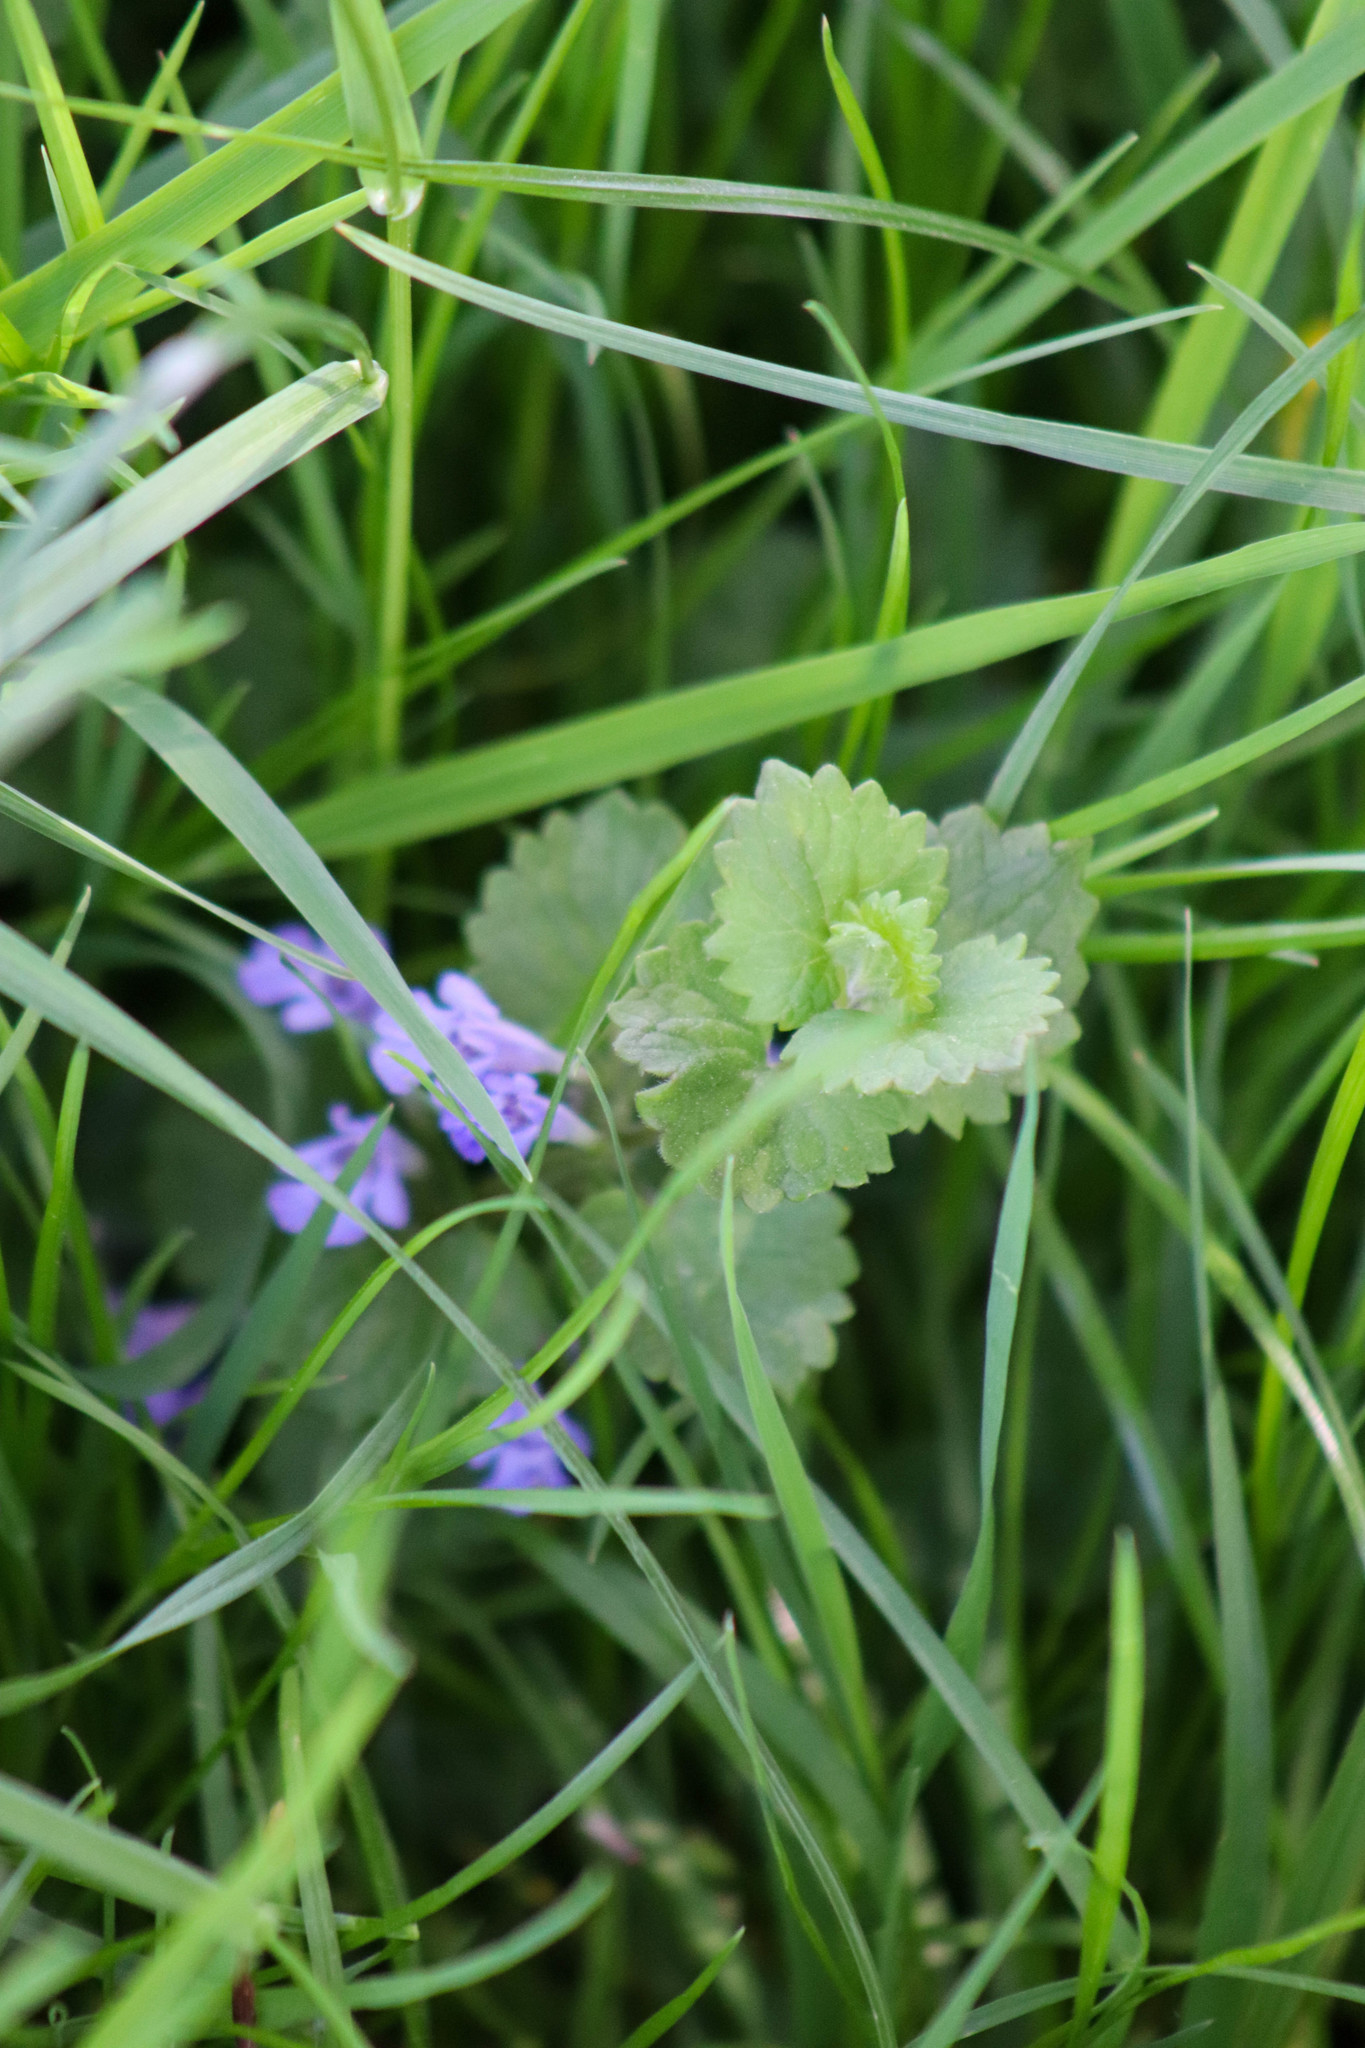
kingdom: Plantae
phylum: Tracheophyta
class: Magnoliopsida
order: Lamiales
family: Lamiaceae
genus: Glechoma
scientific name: Glechoma hederacea
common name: Ground ivy
